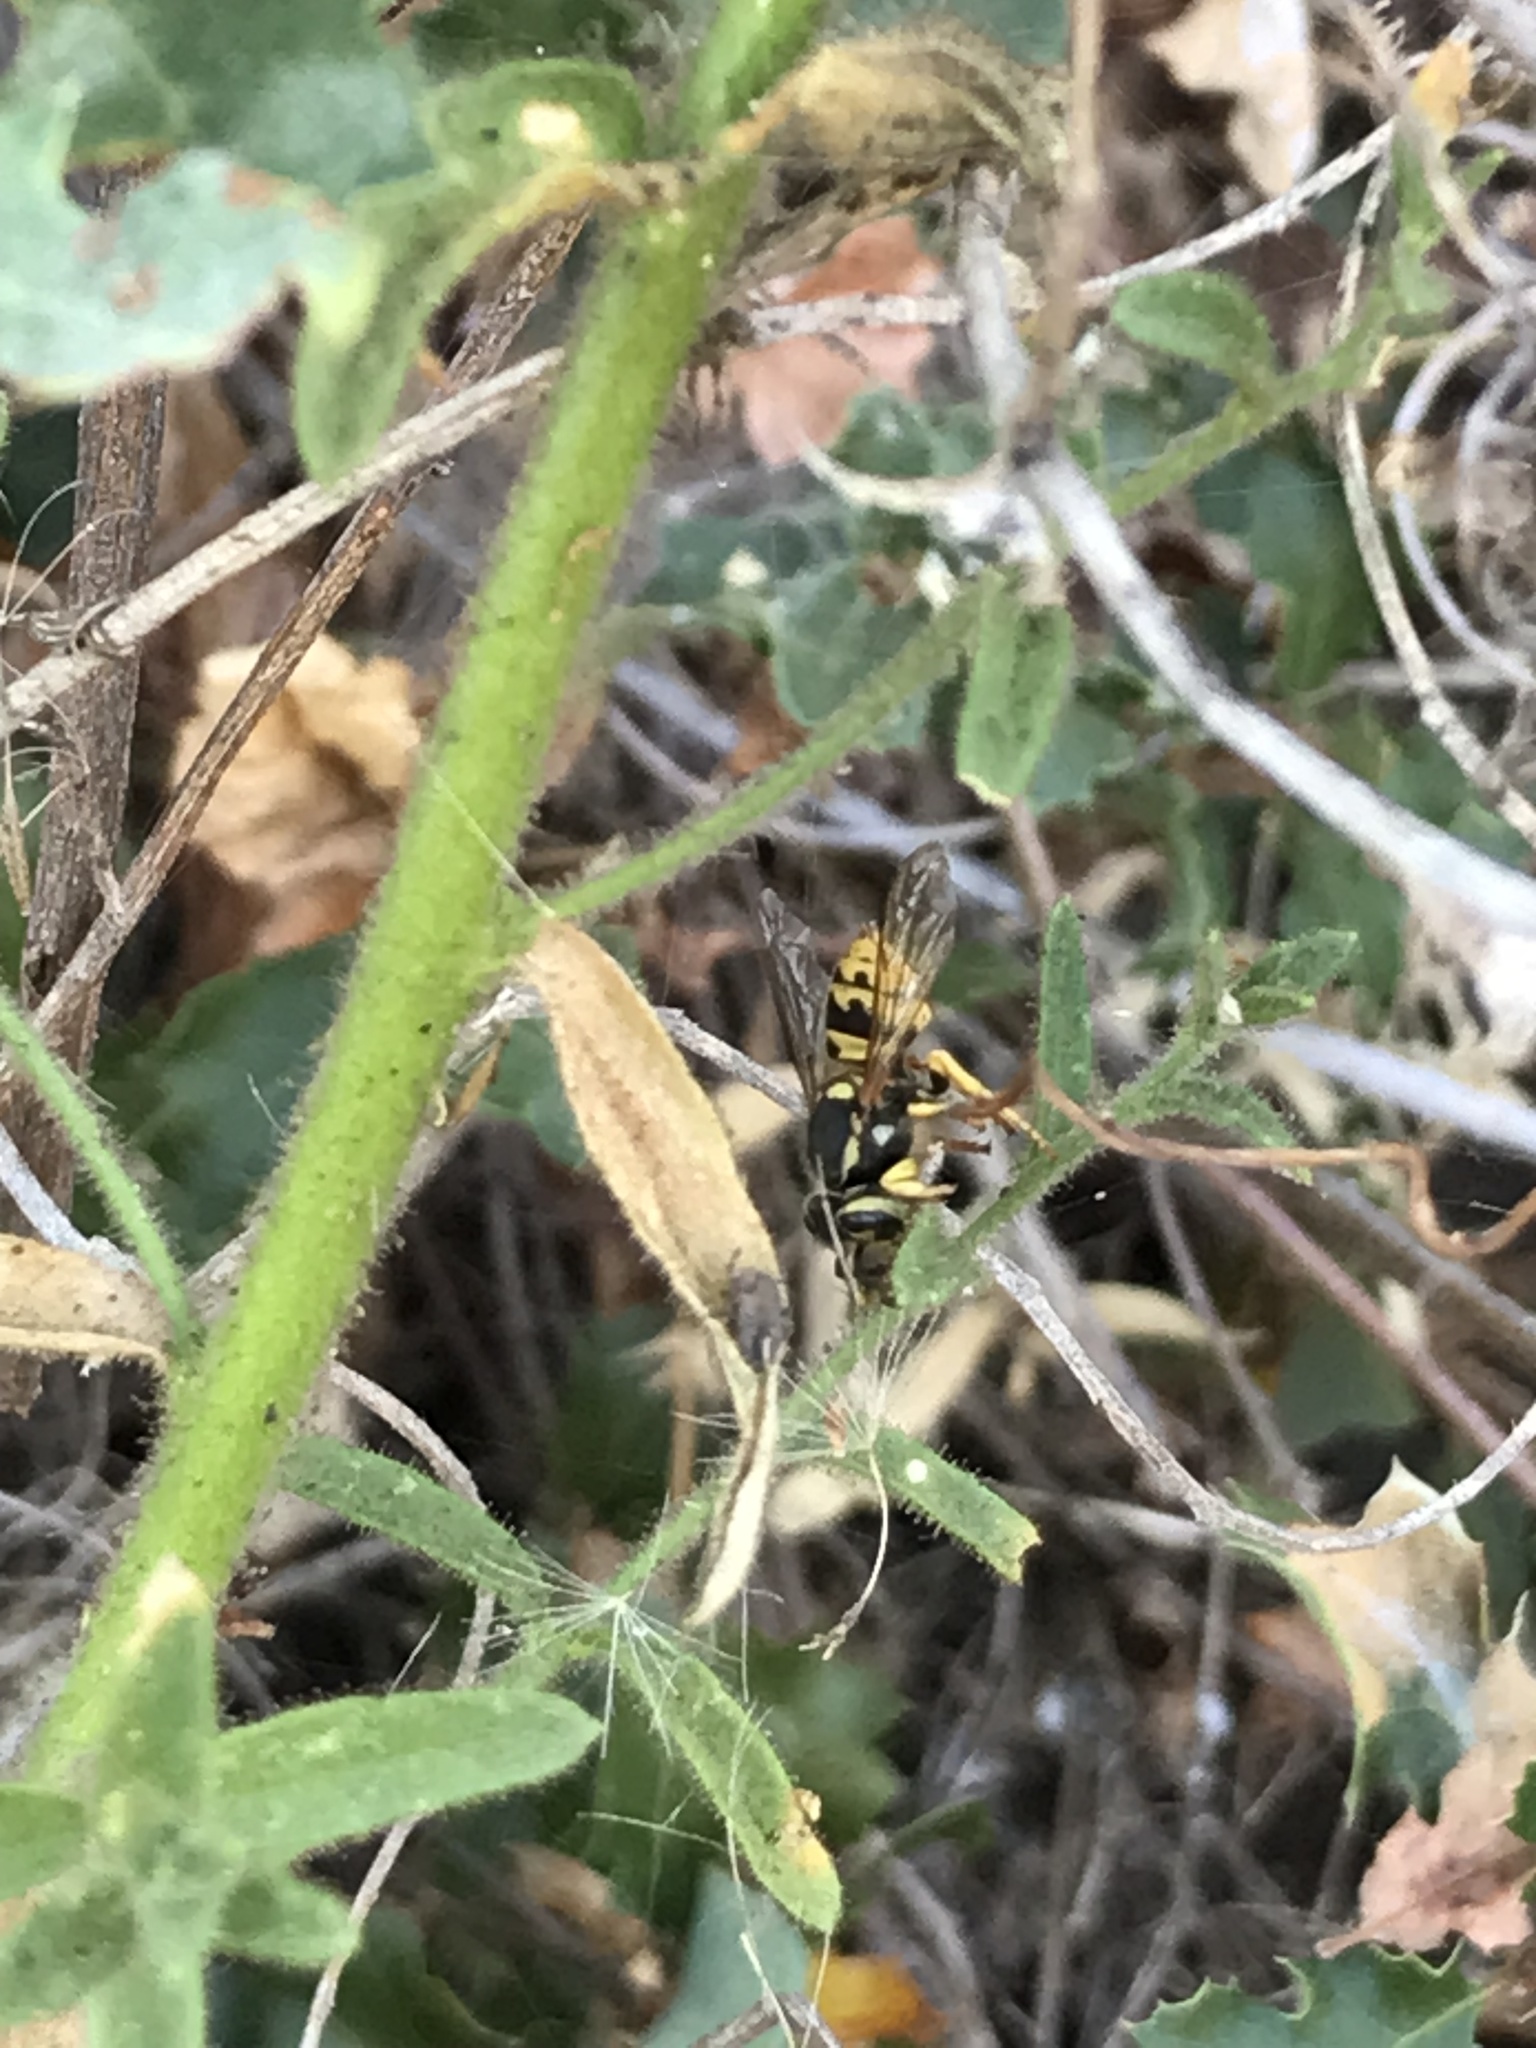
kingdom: Animalia
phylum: Arthropoda
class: Insecta
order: Hymenoptera
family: Vespidae
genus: Vespula
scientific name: Vespula pensylvanica
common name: Western yellowjacket
